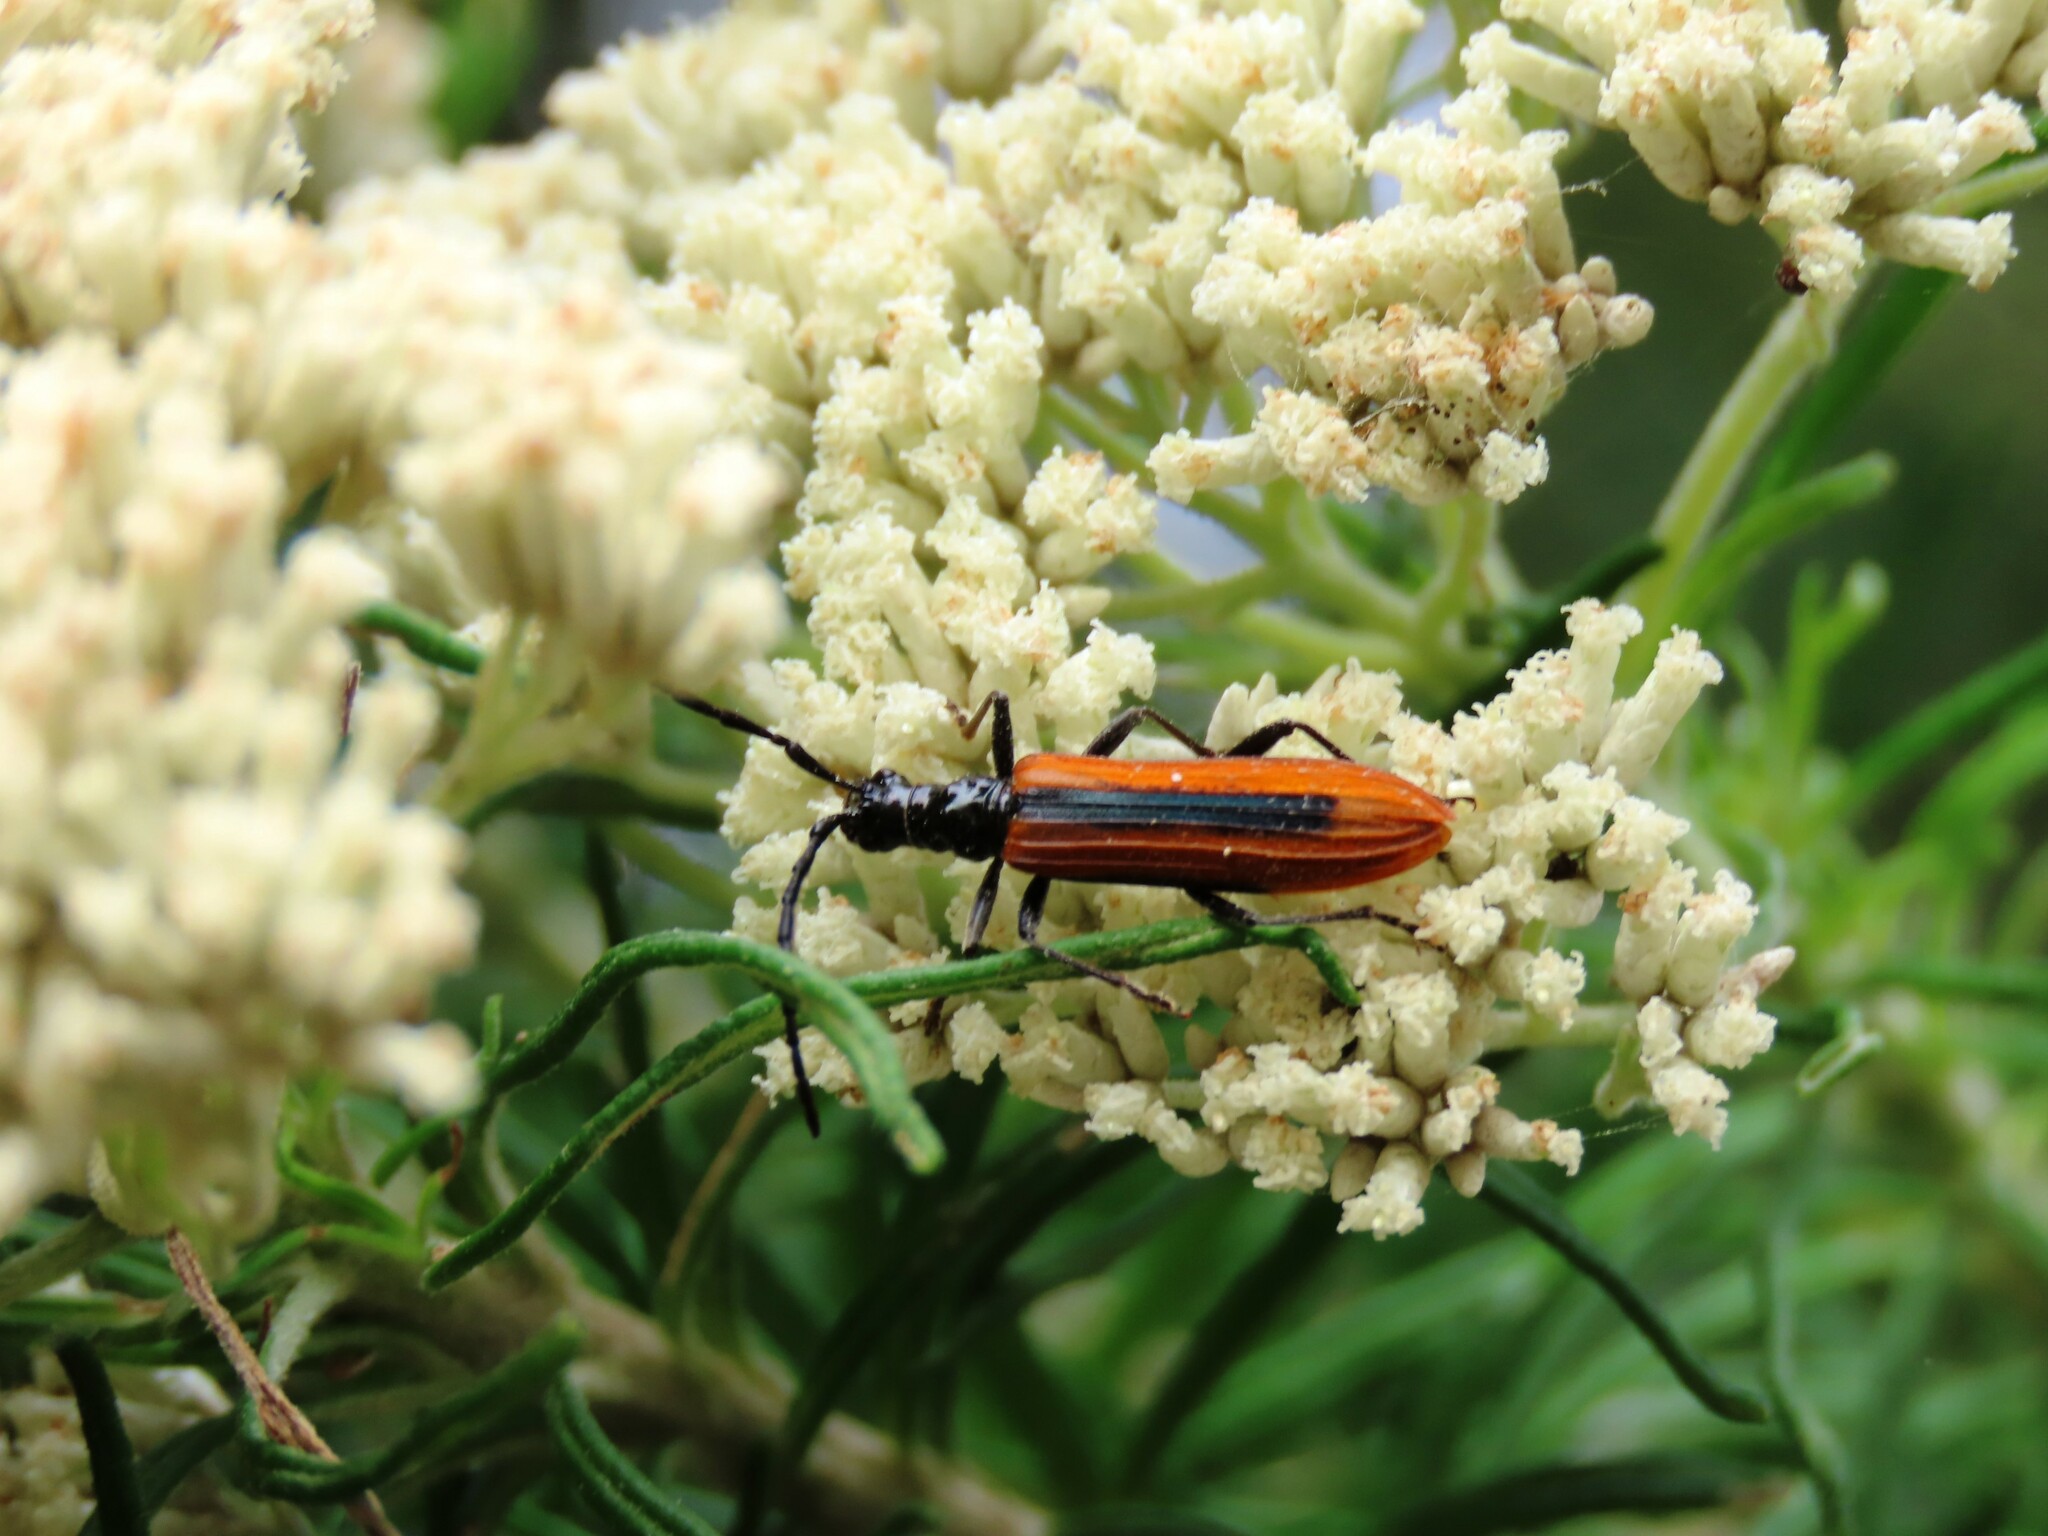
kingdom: Animalia
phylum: Arthropoda
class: Insecta
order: Coleoptera
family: Cerambycidae
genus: Stenoderus
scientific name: Stenoderus suturalis
